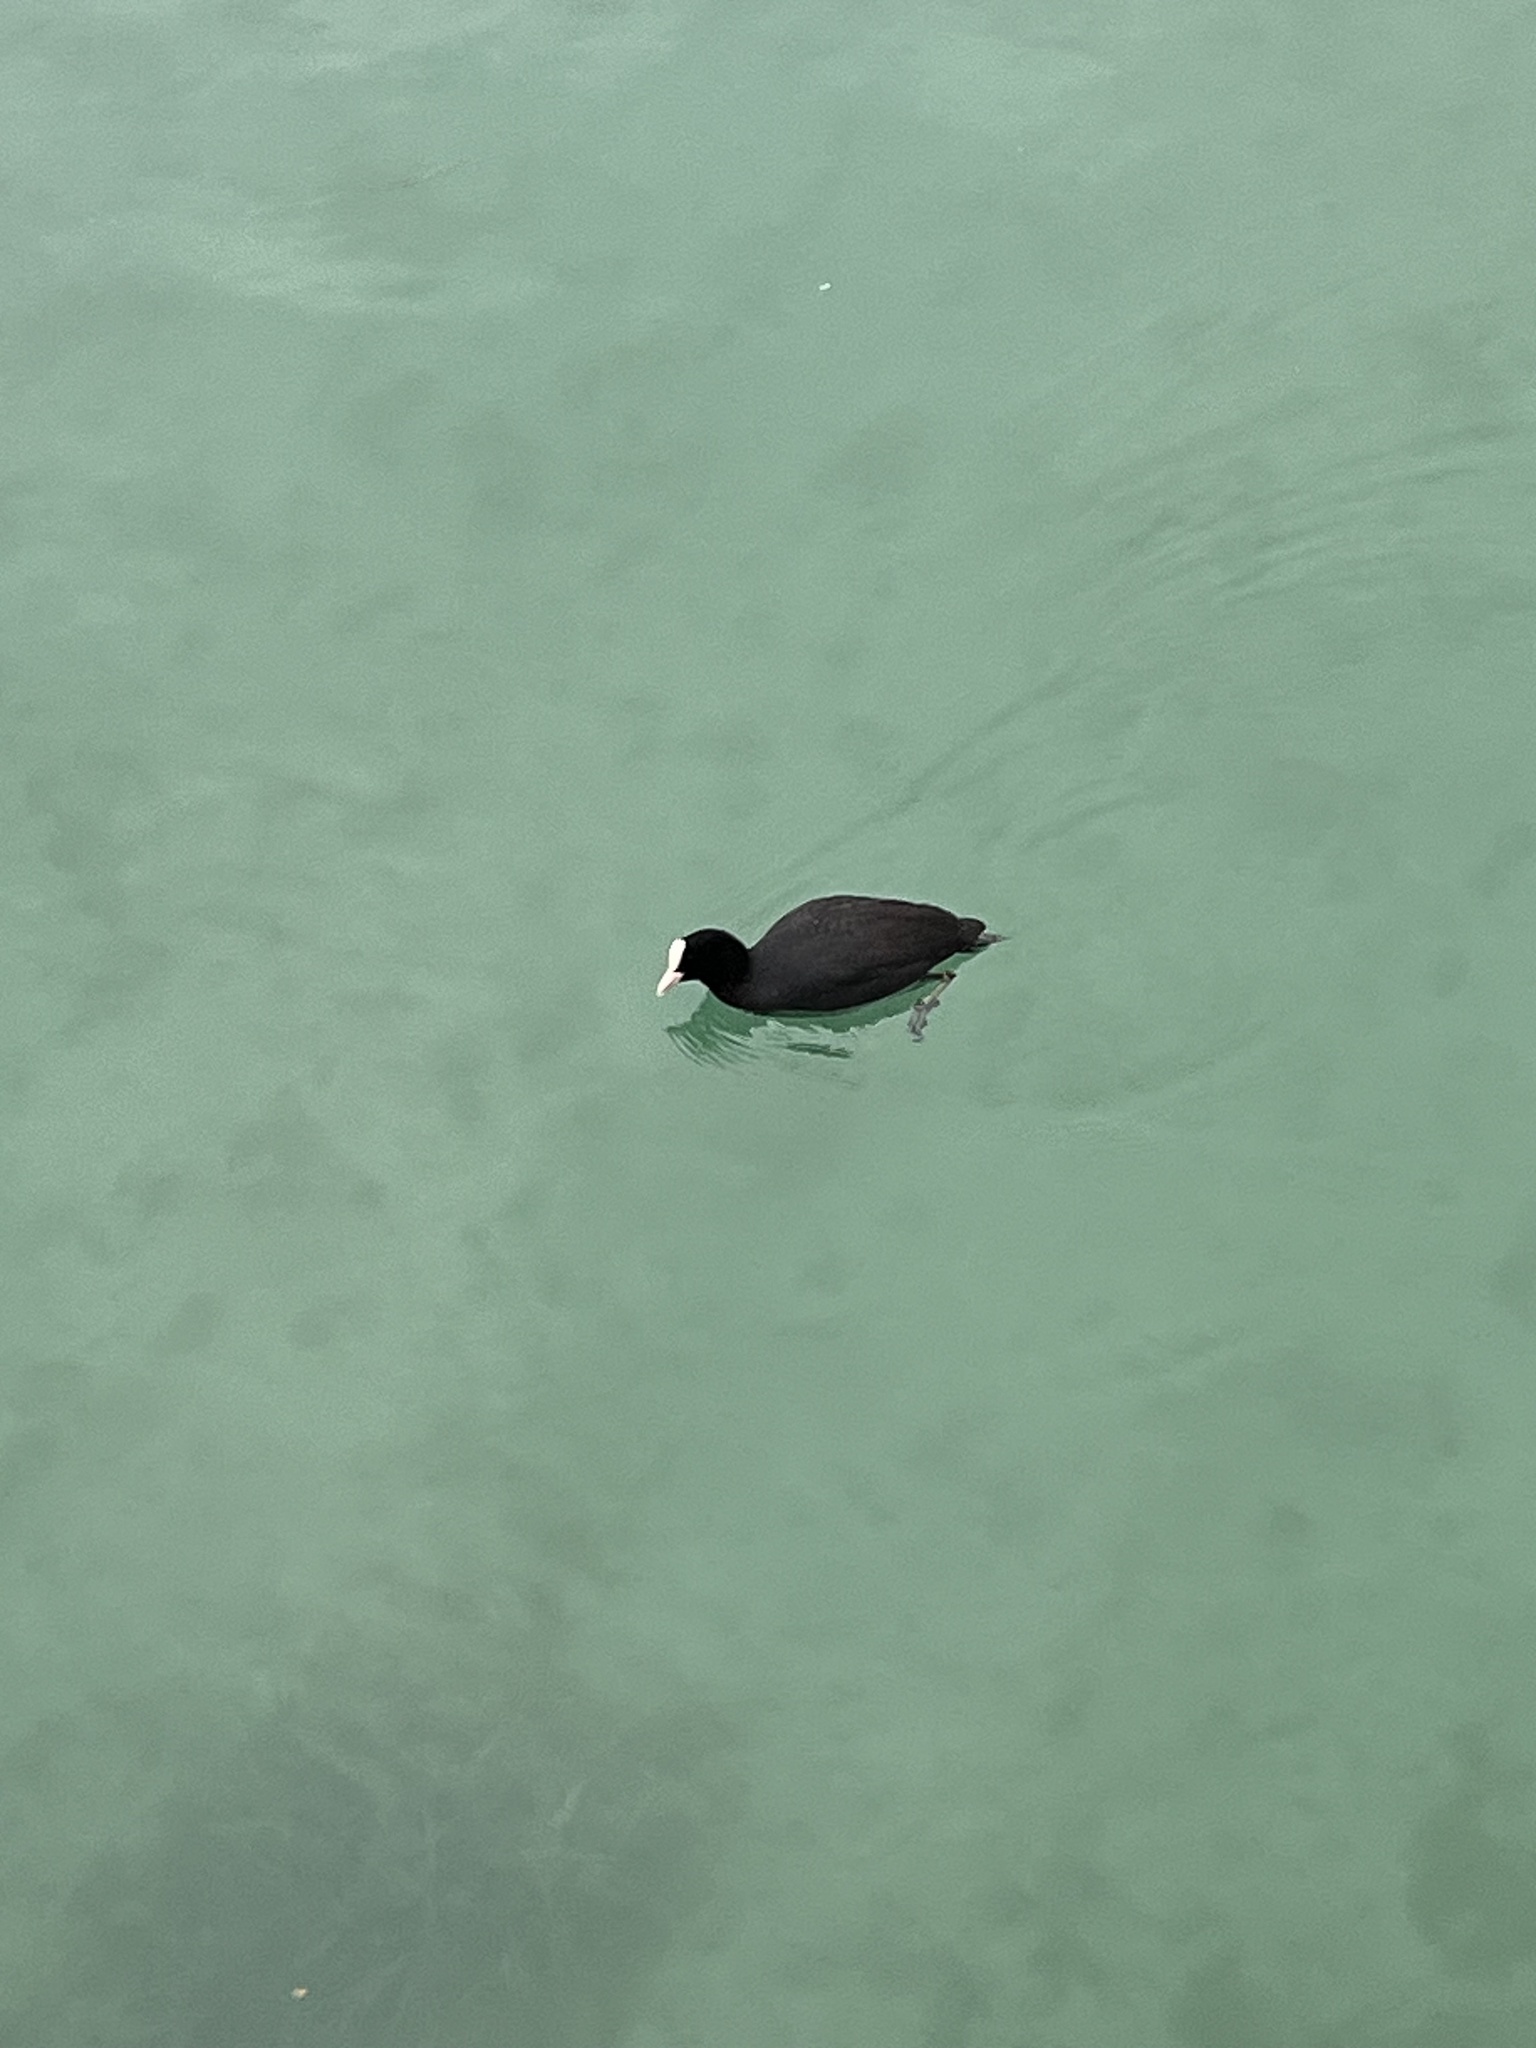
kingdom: Animalia
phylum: Chordata
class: Aves
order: Gruiformes
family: Rallidae
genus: Fulica
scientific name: Fulica atra
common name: Eurasian coot
